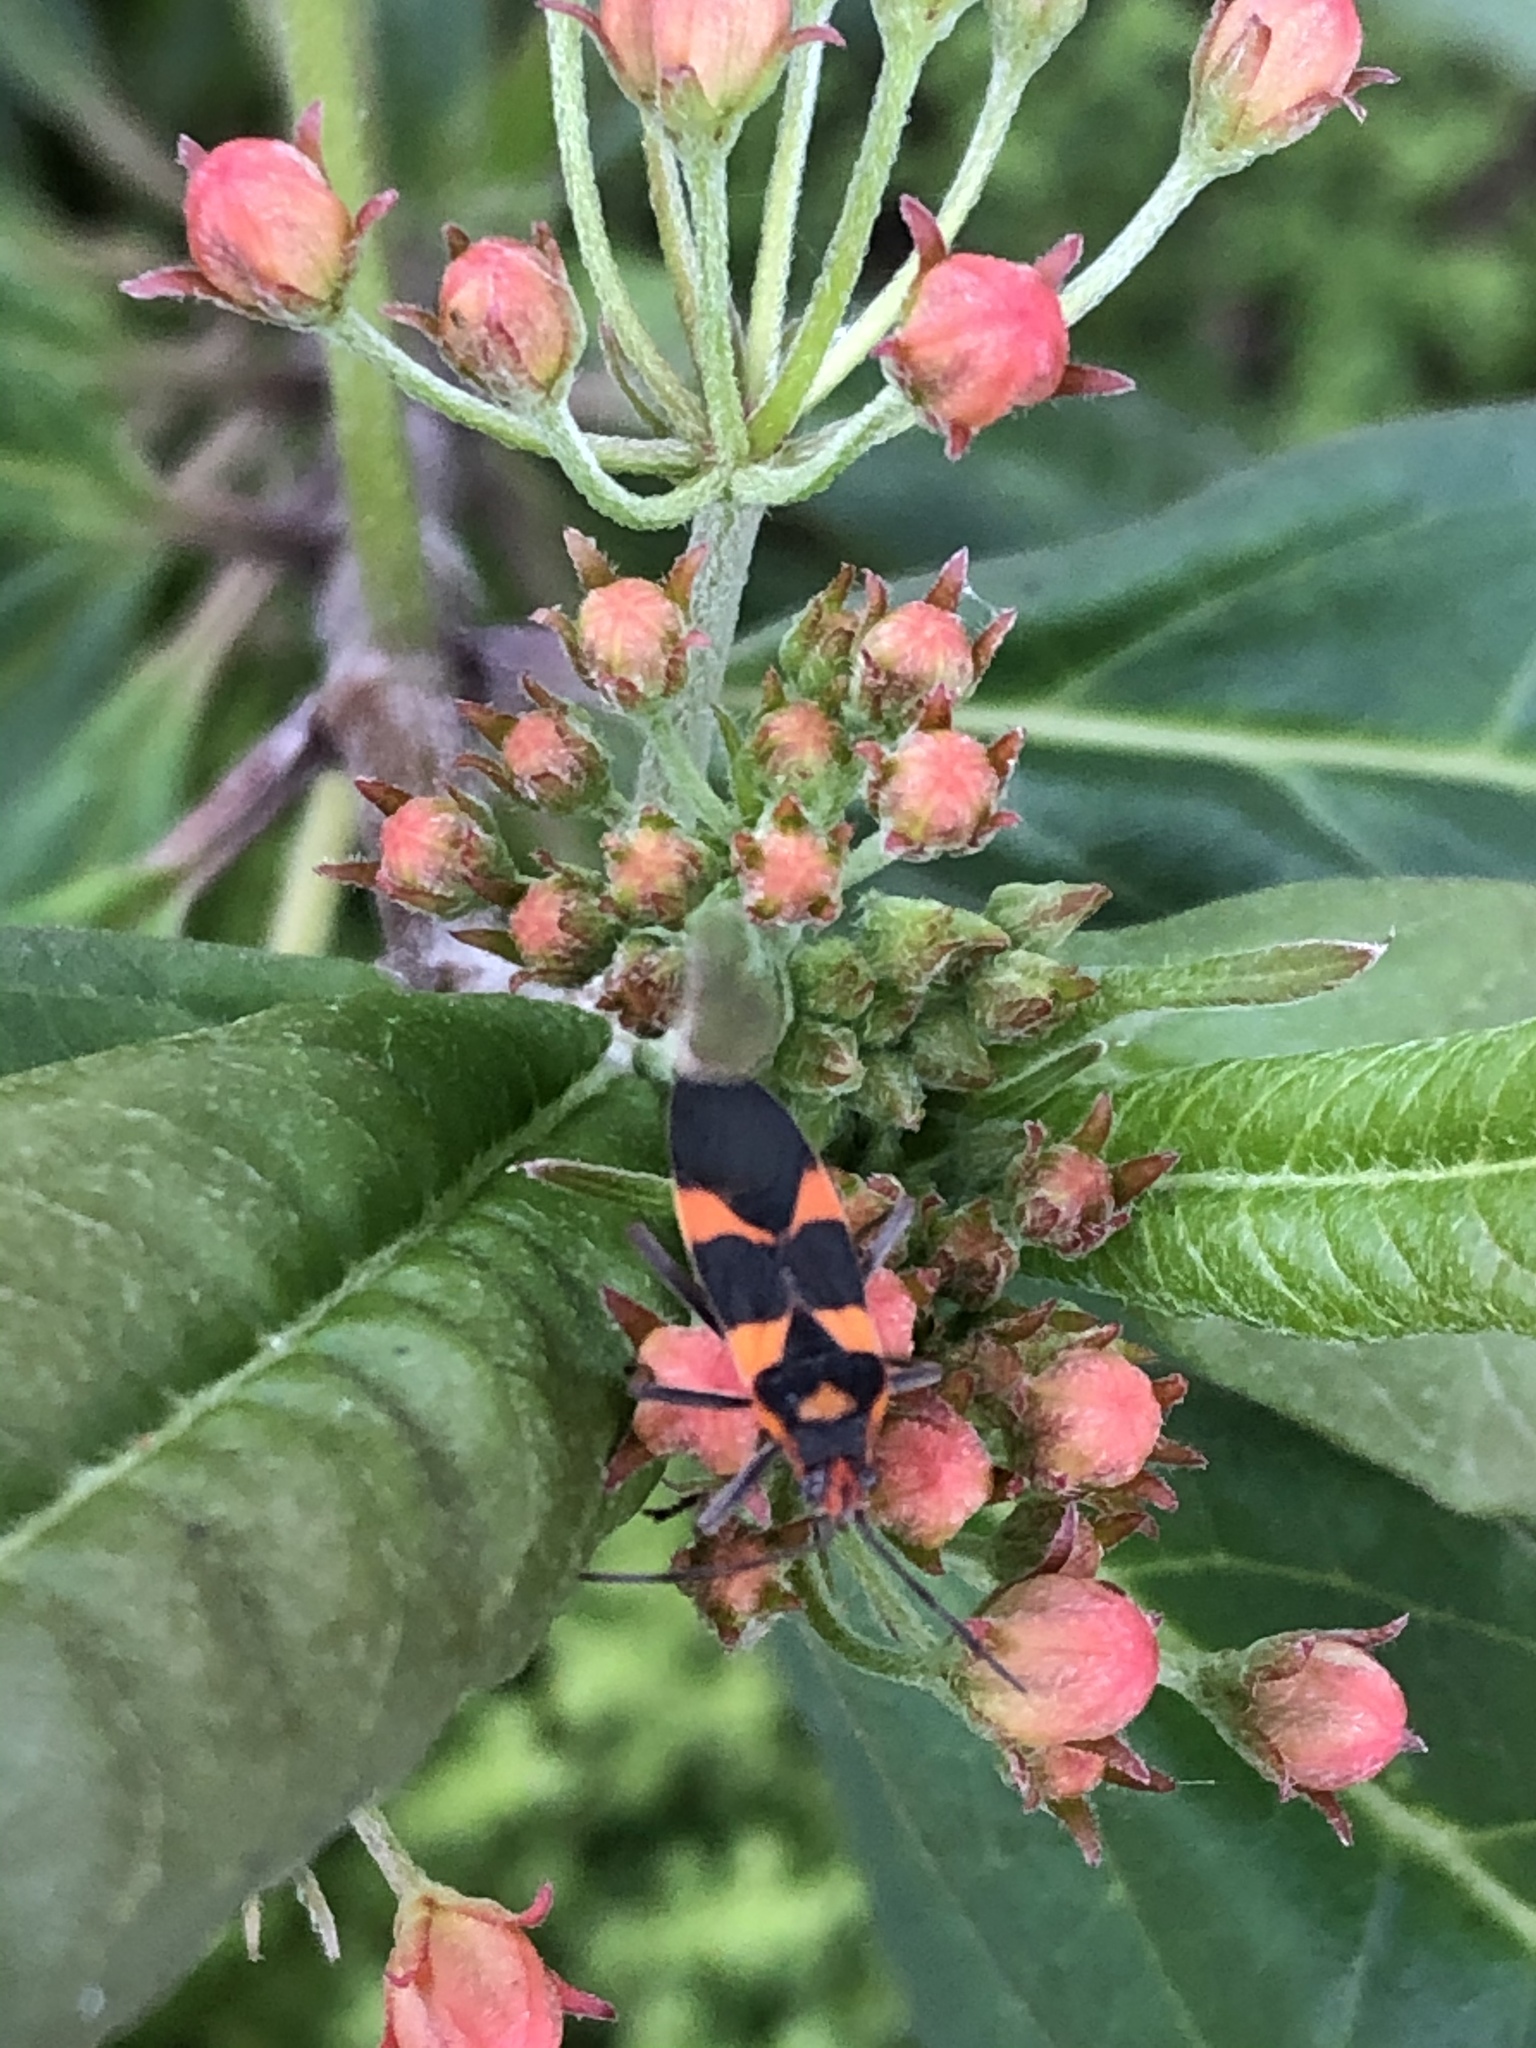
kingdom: Animalia
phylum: Arthropoda
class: Insecta
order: Hemiptera
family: Lygaeidae
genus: Oncopeltus
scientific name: Oncopeltus zonatus
